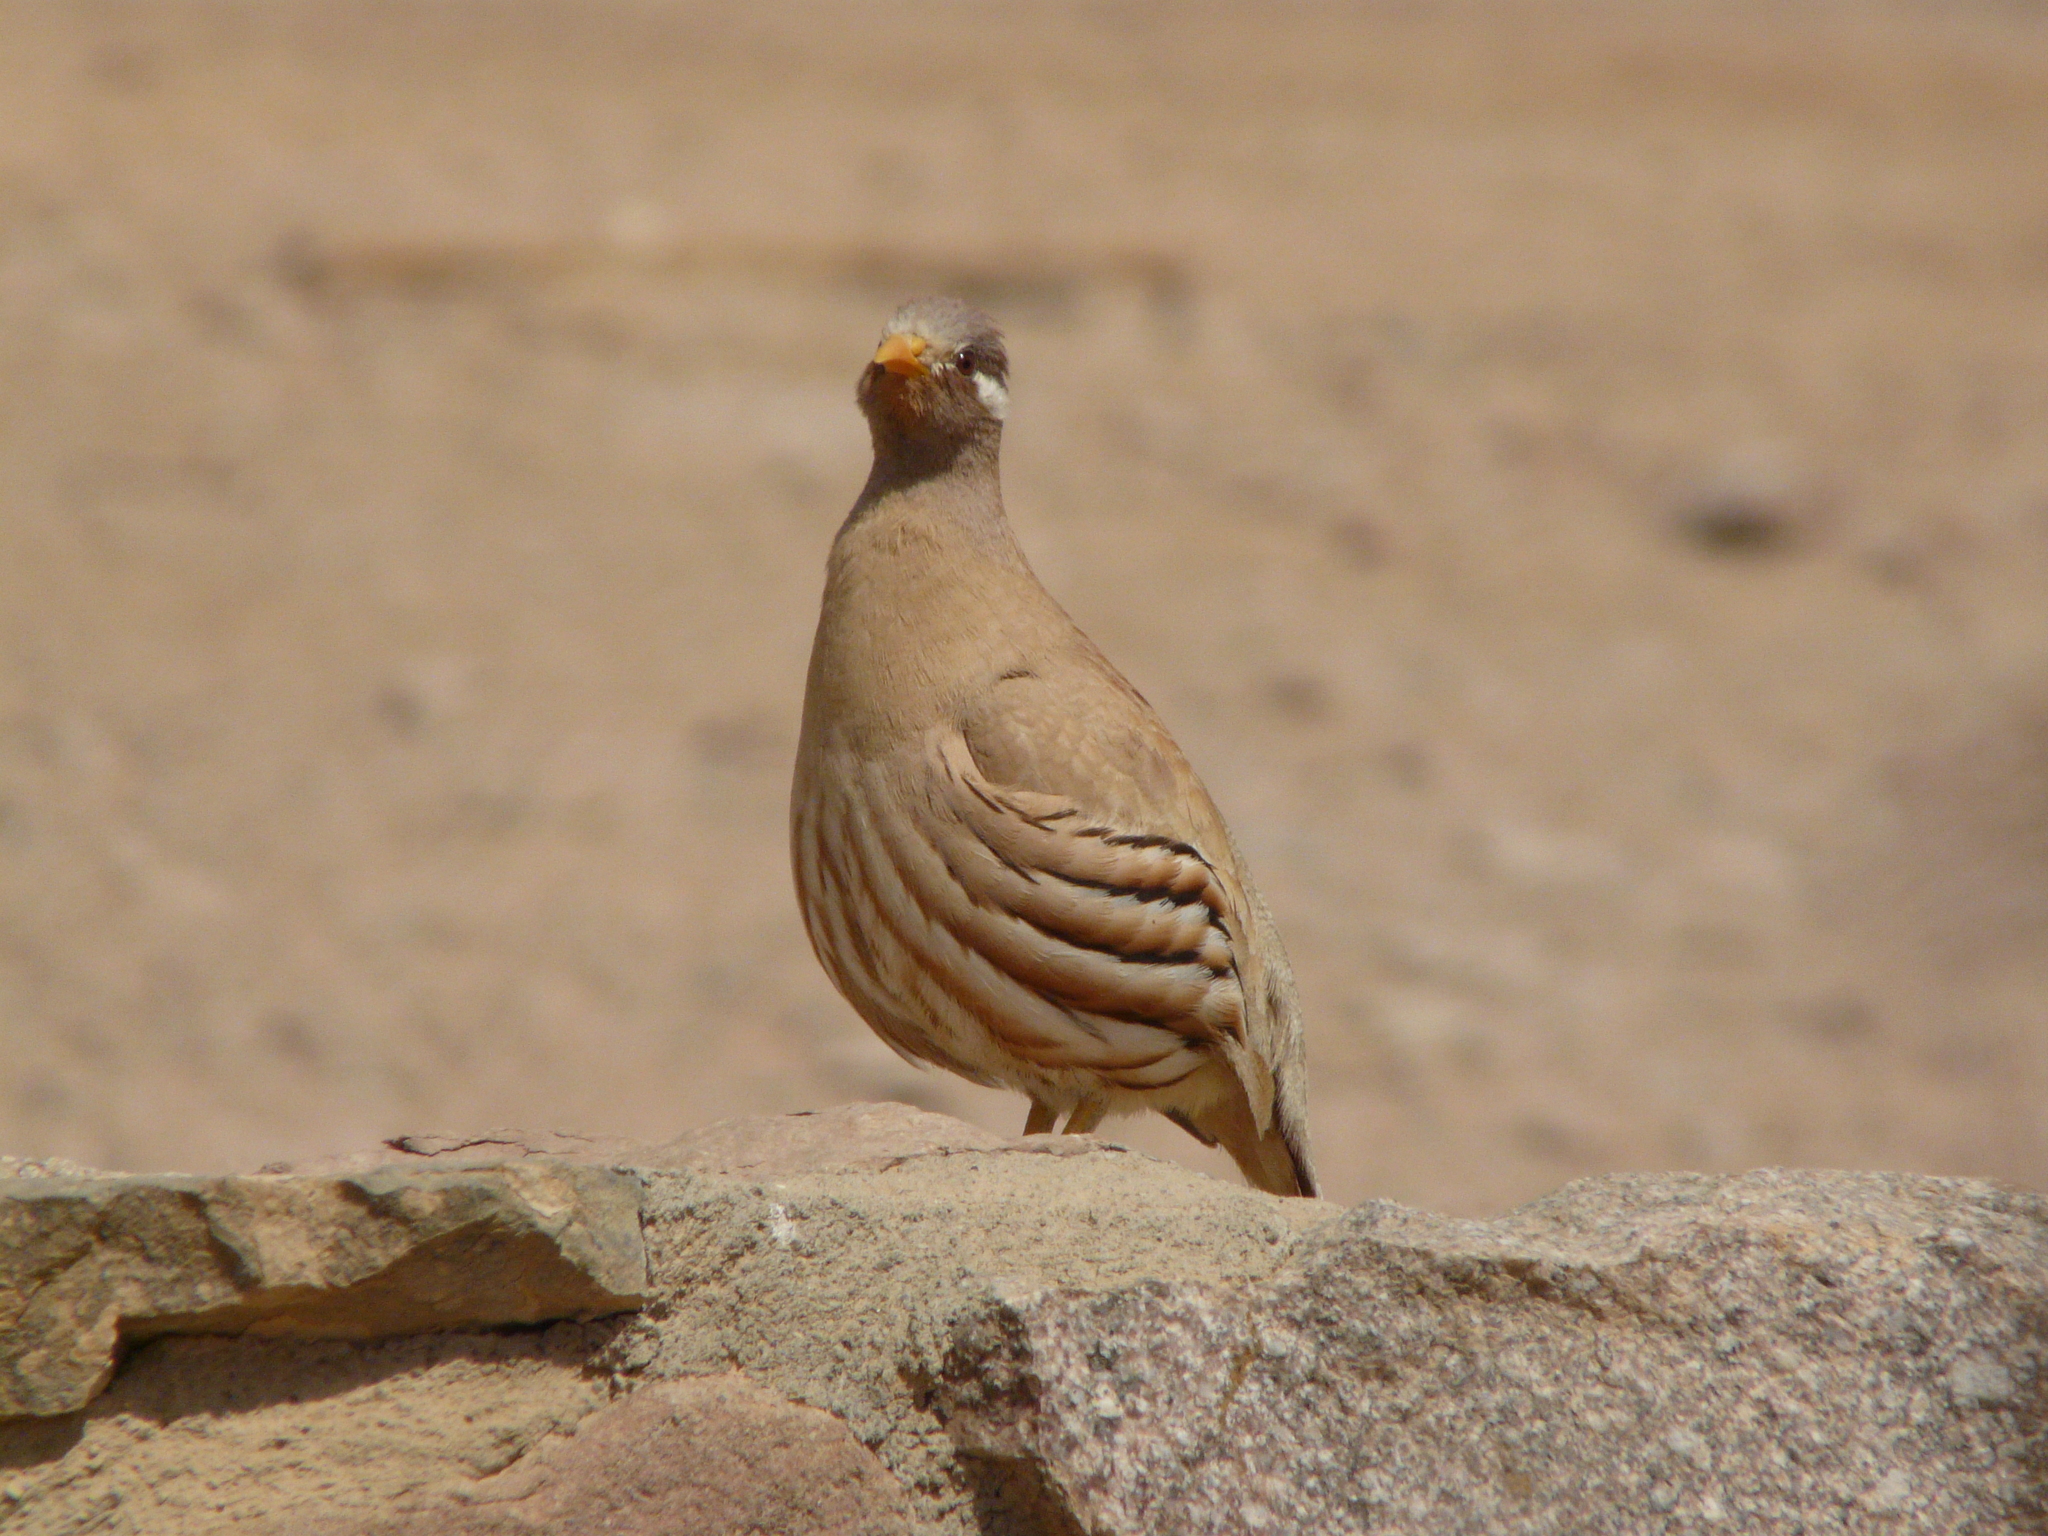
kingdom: Animalia
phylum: Chordata
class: Aves
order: Galliformes
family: Phasianidae
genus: Ammoperdix
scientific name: Ammoperdix heyi
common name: Sand partridge
